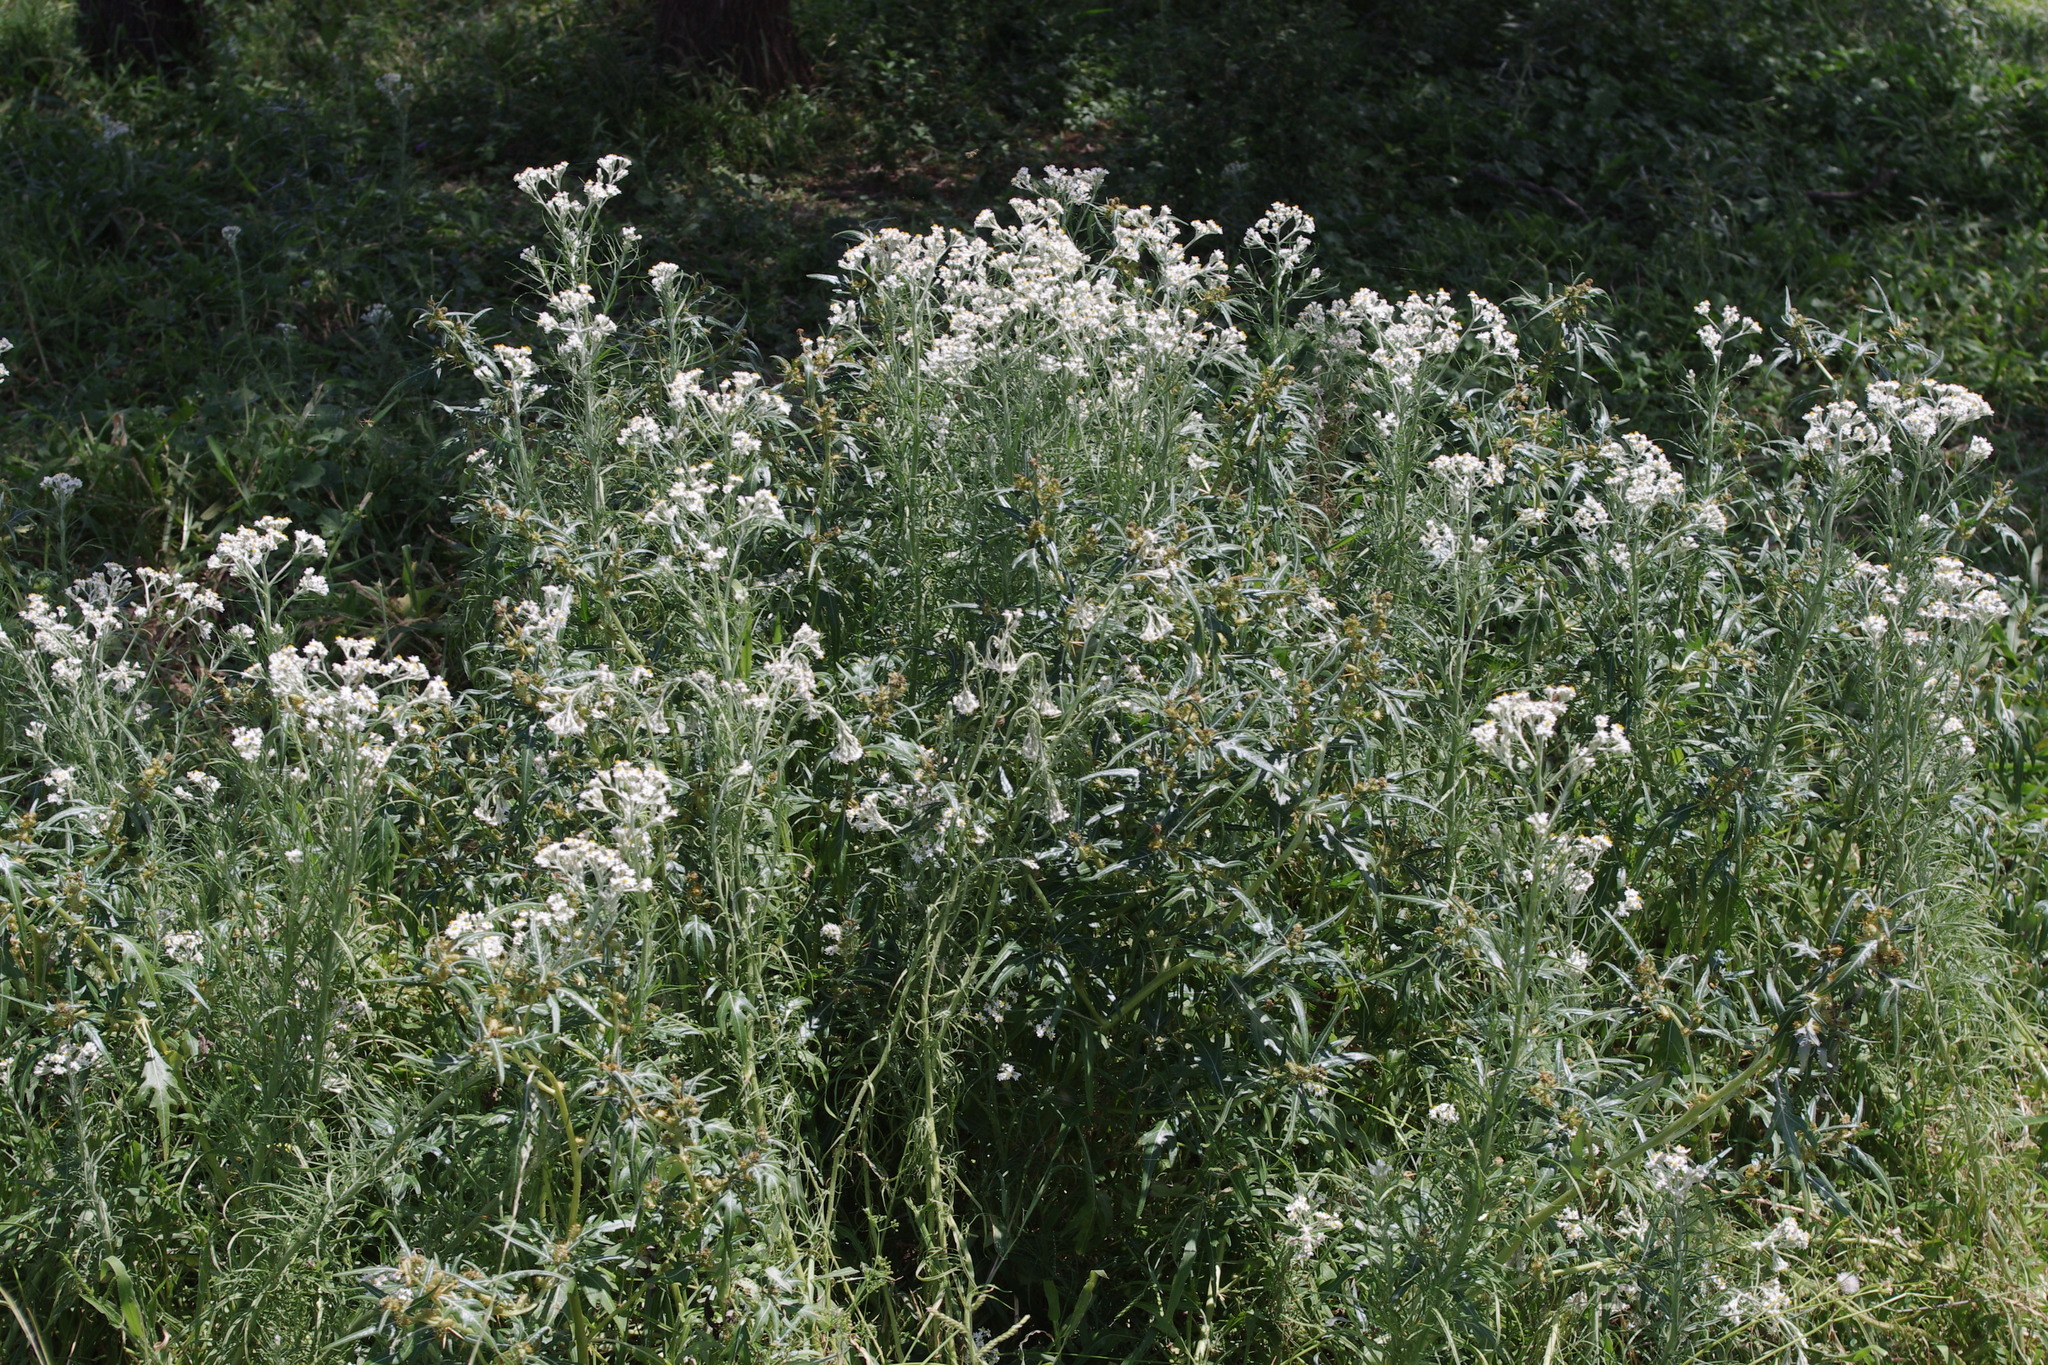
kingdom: Plantae
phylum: Tracheophyta
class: Magnoliopsida
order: Asterales
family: Asteraceae
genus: Rhodanthe
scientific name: Rhodanthe polyphylla
